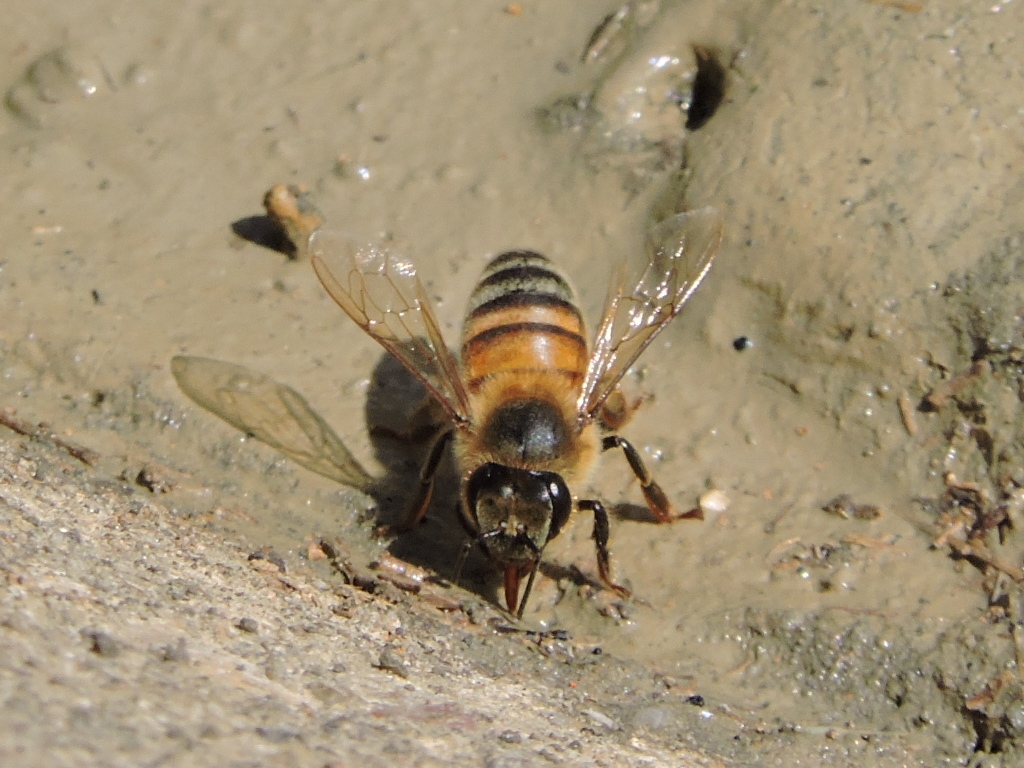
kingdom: Animalia
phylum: Arthropoda
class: Insecta
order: Hymenoptera
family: Apidae
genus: Apis
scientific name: Apis mellifera
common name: Honey bee
